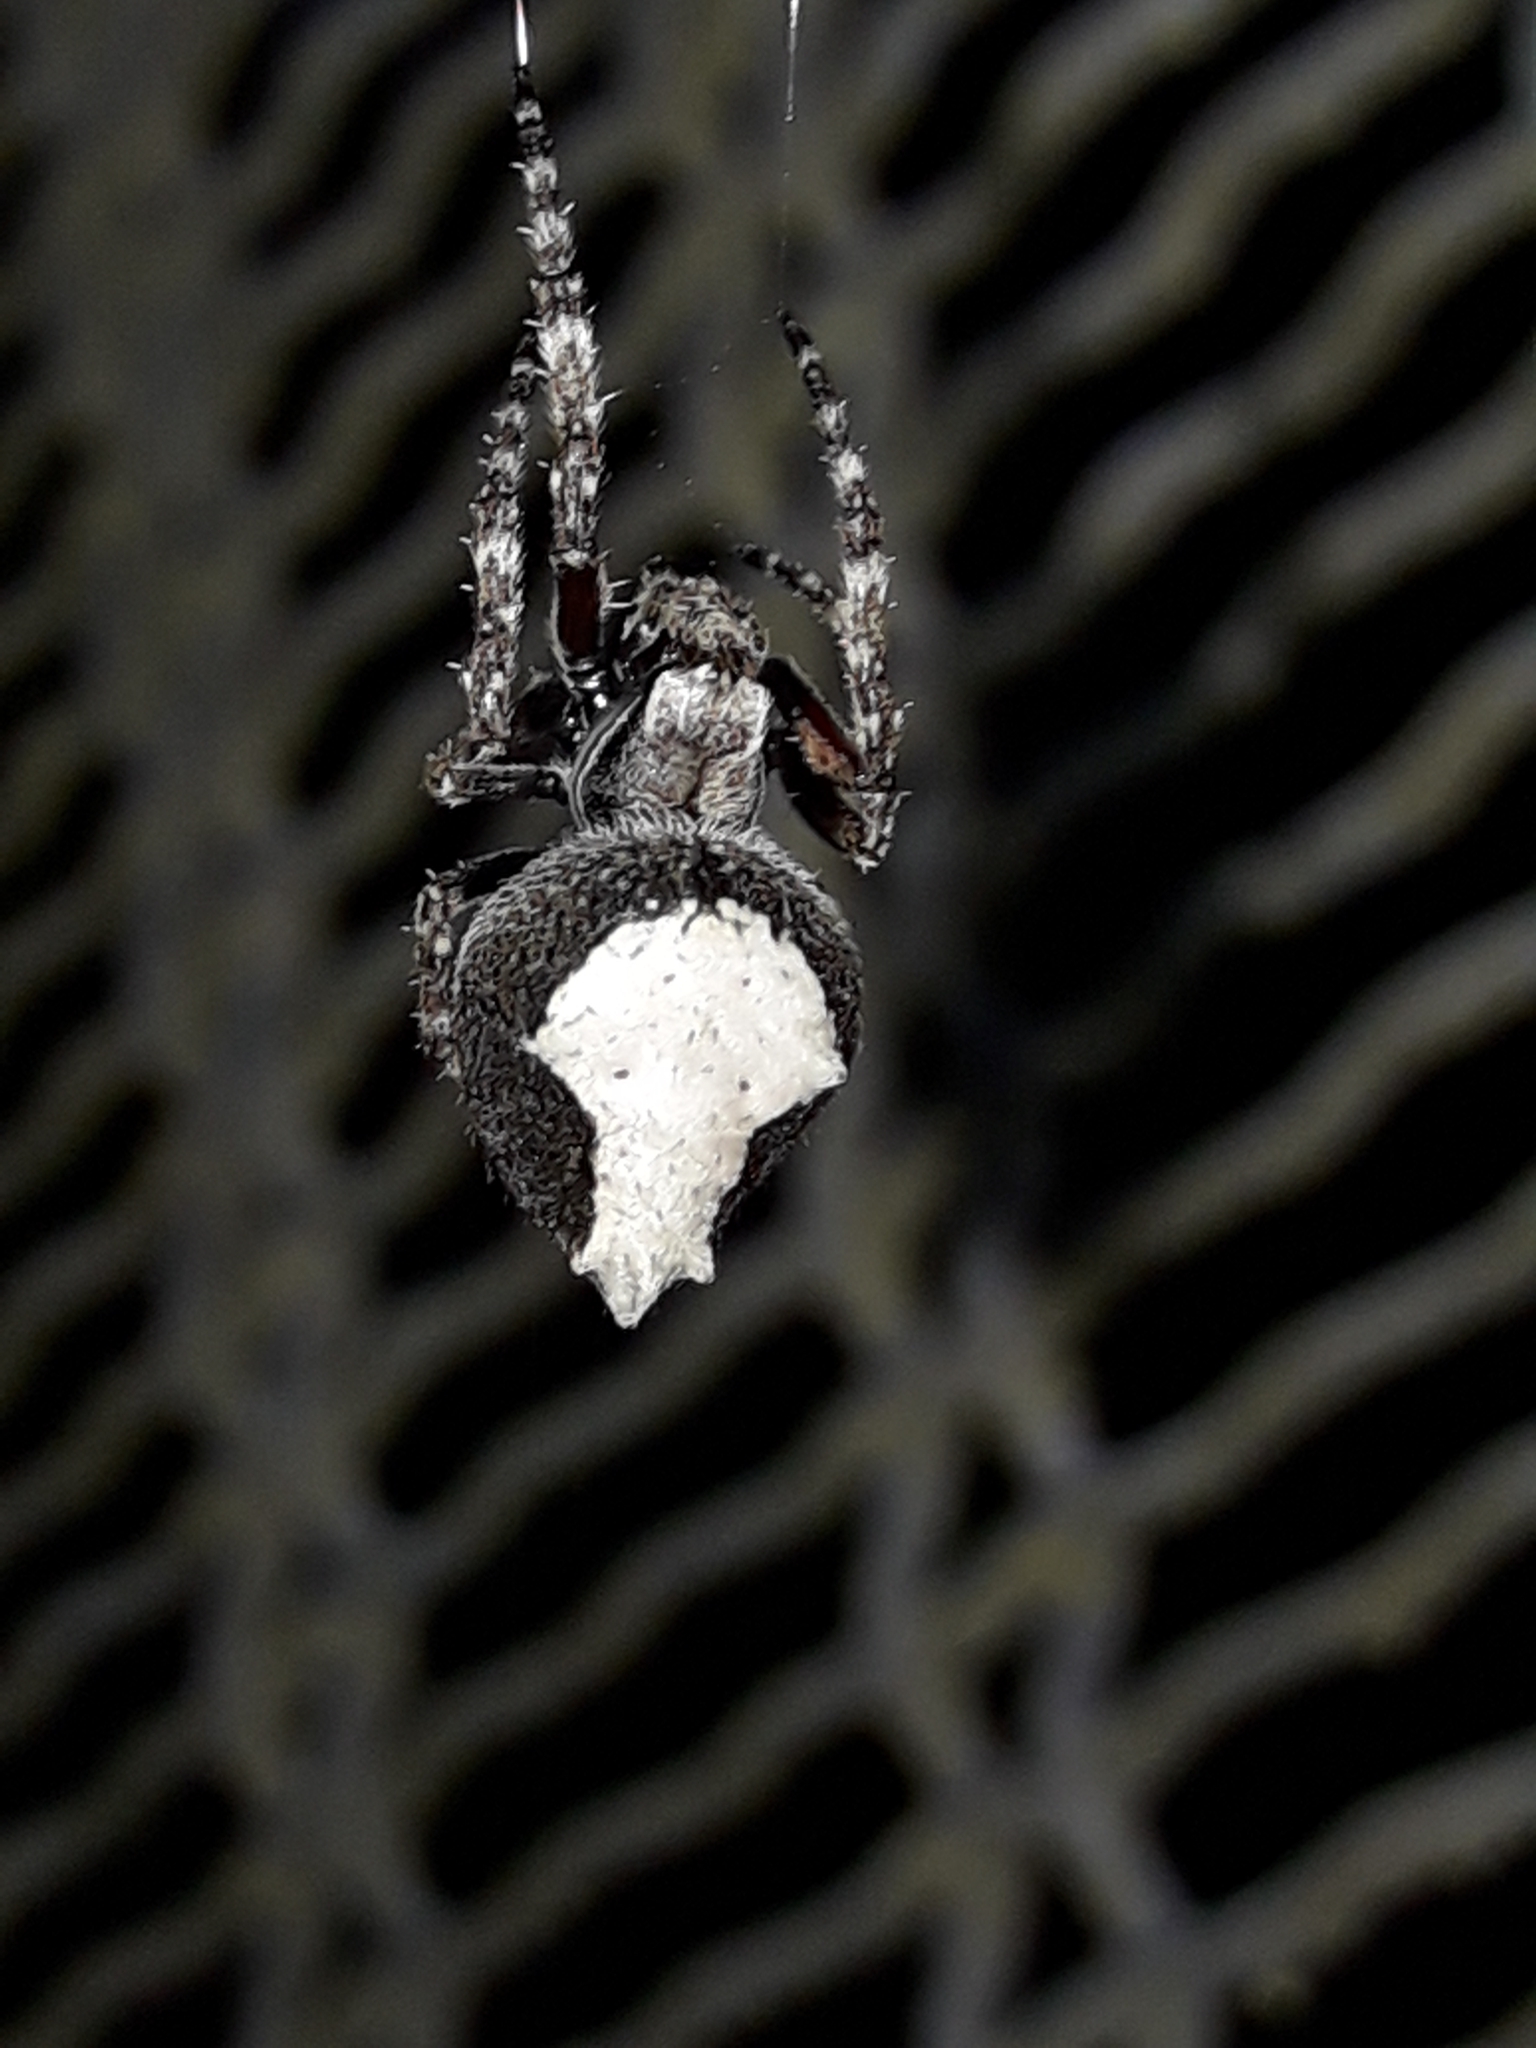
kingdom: Animalia
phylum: Arthropoda
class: Arachnida
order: Araneae
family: Araneidae
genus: Eriophora
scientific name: Eriophora pustulosa
